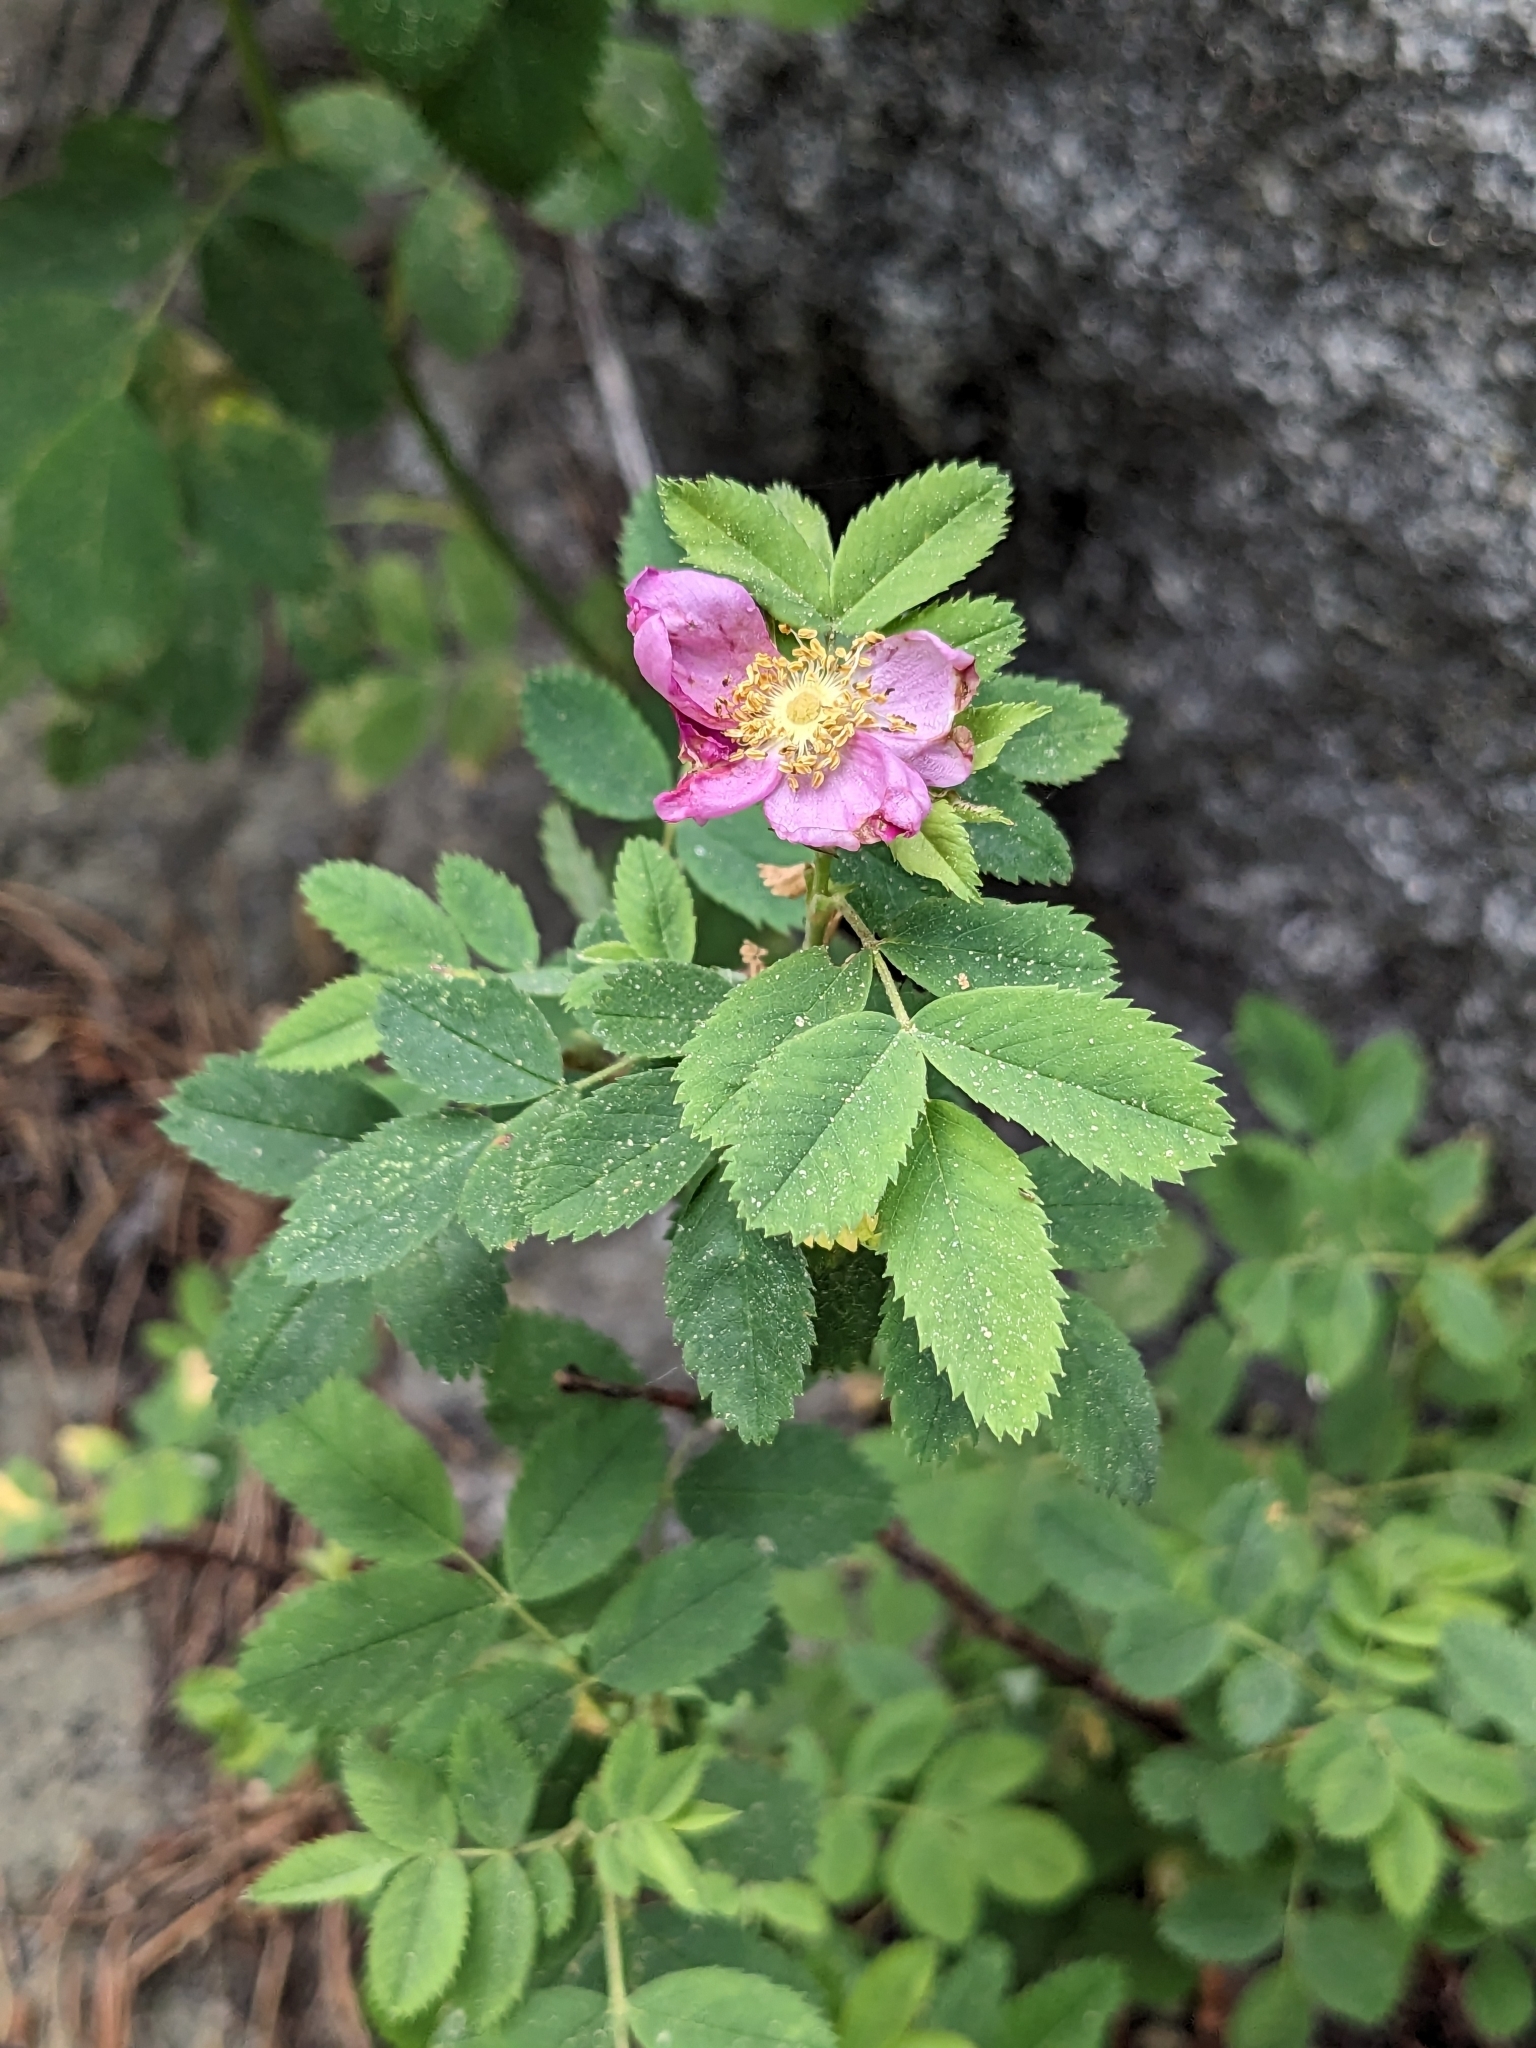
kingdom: Plantae
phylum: Tracheophyta
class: Magnoliopsida
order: Rosales
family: Rosaceae
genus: Rosa
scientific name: Rosa woodsii
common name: Woods's rose
